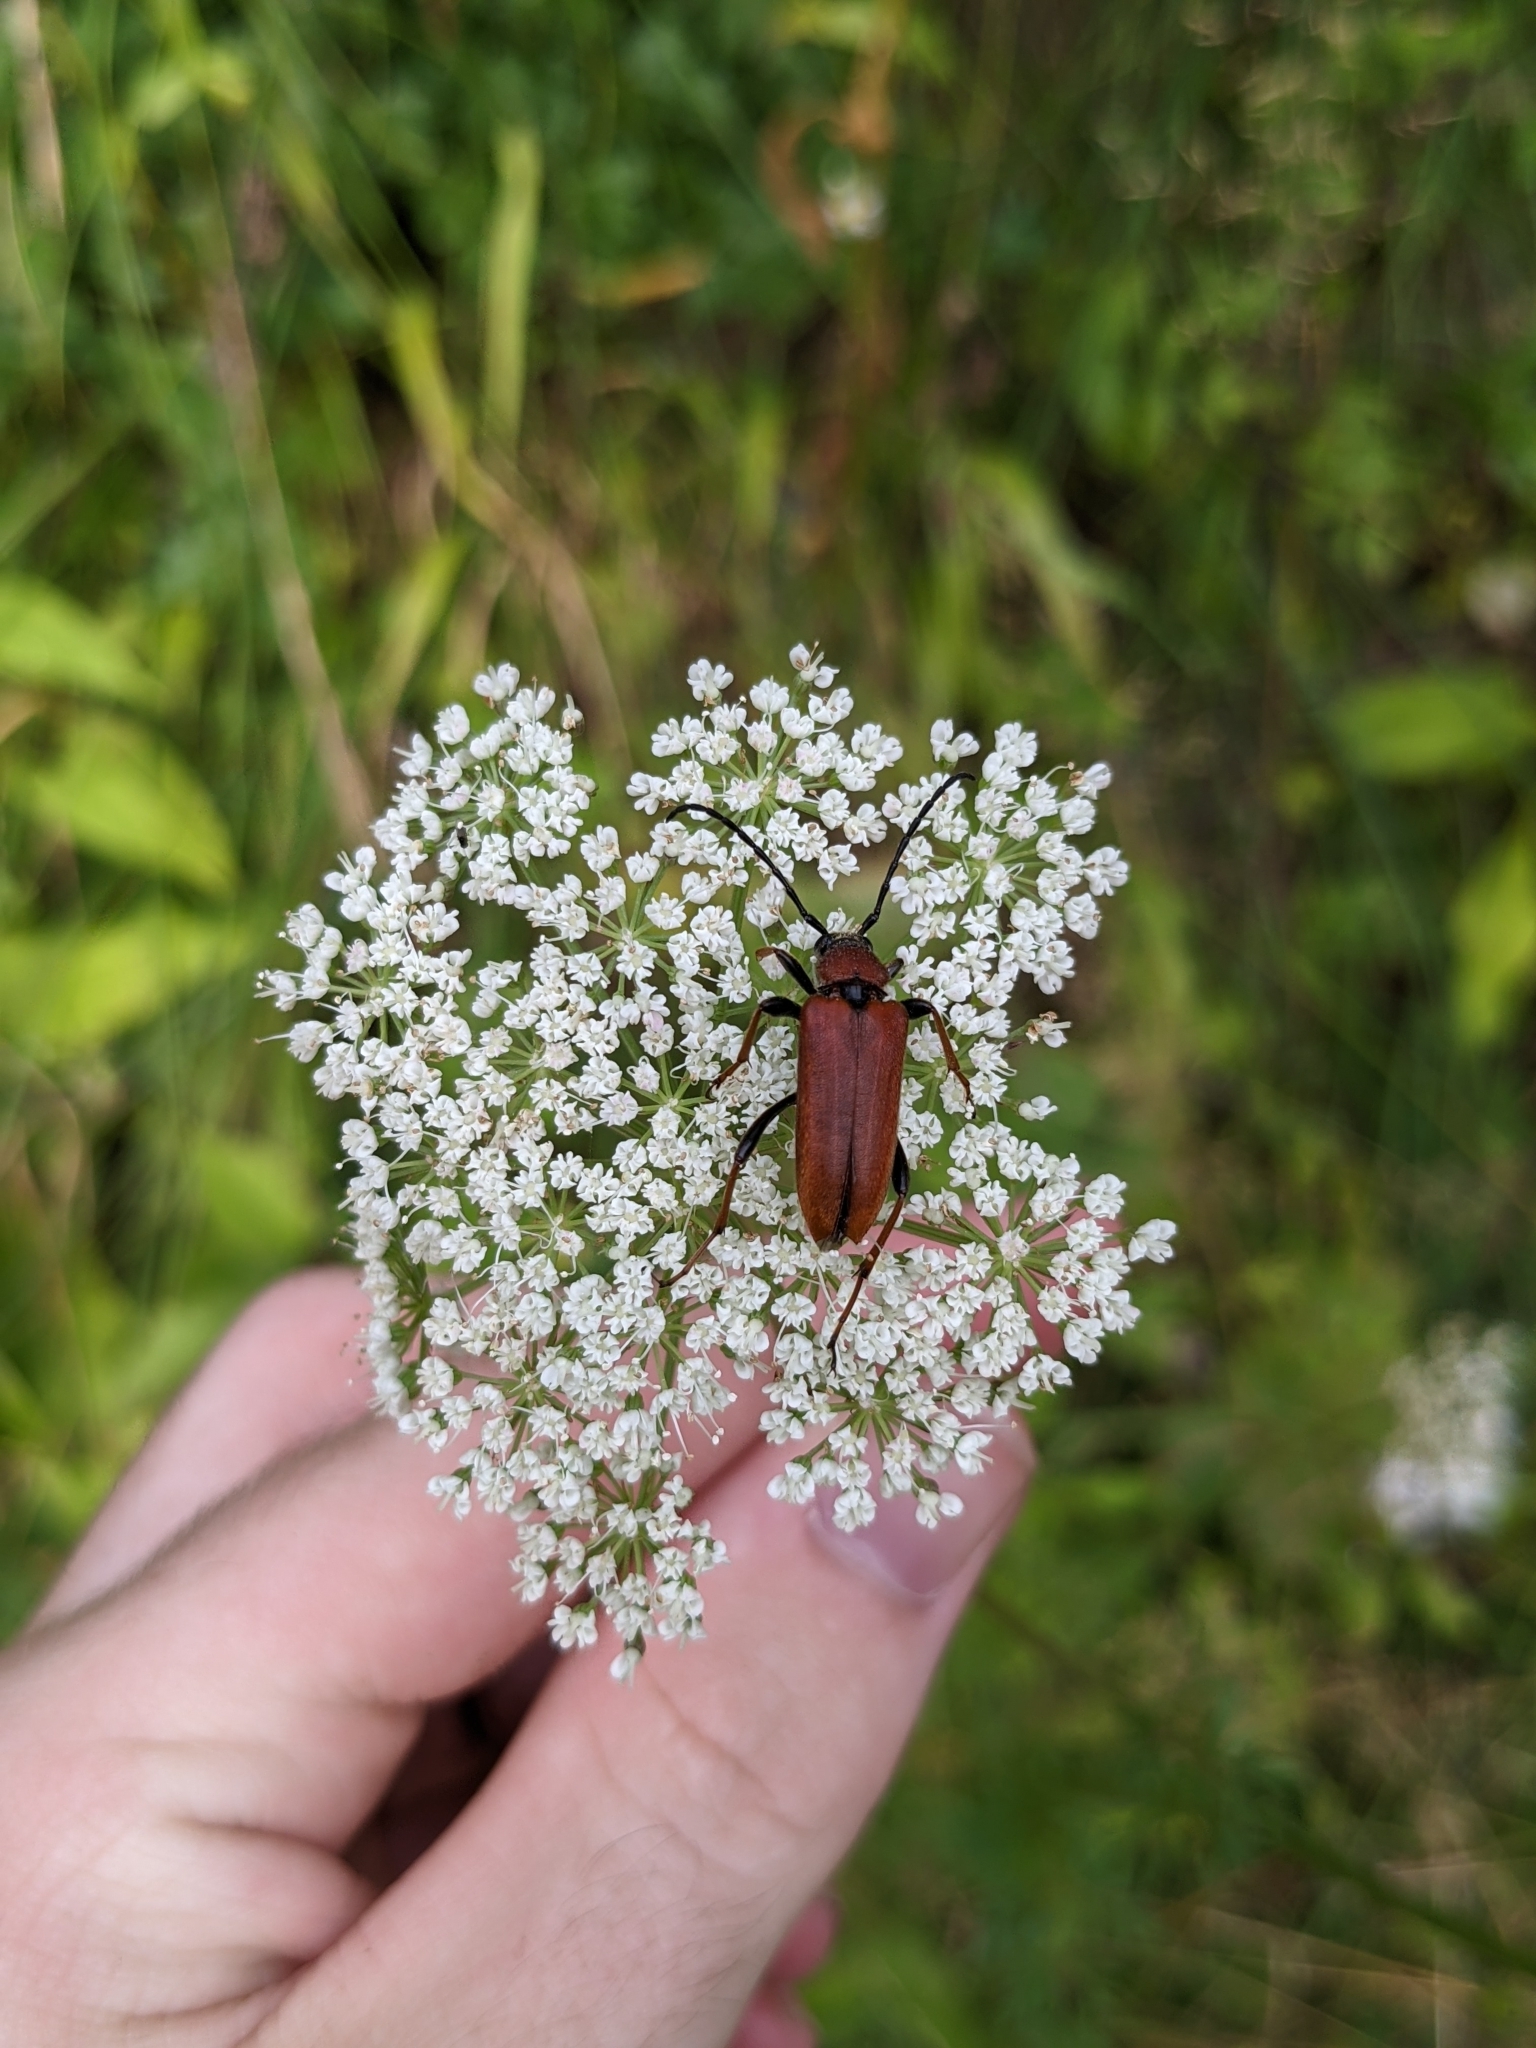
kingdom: Animalia
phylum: Arthropoda
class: Insecta
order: Coleoptera
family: Cerambycidae
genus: Stictoleptura
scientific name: Stictoleptura rubra
